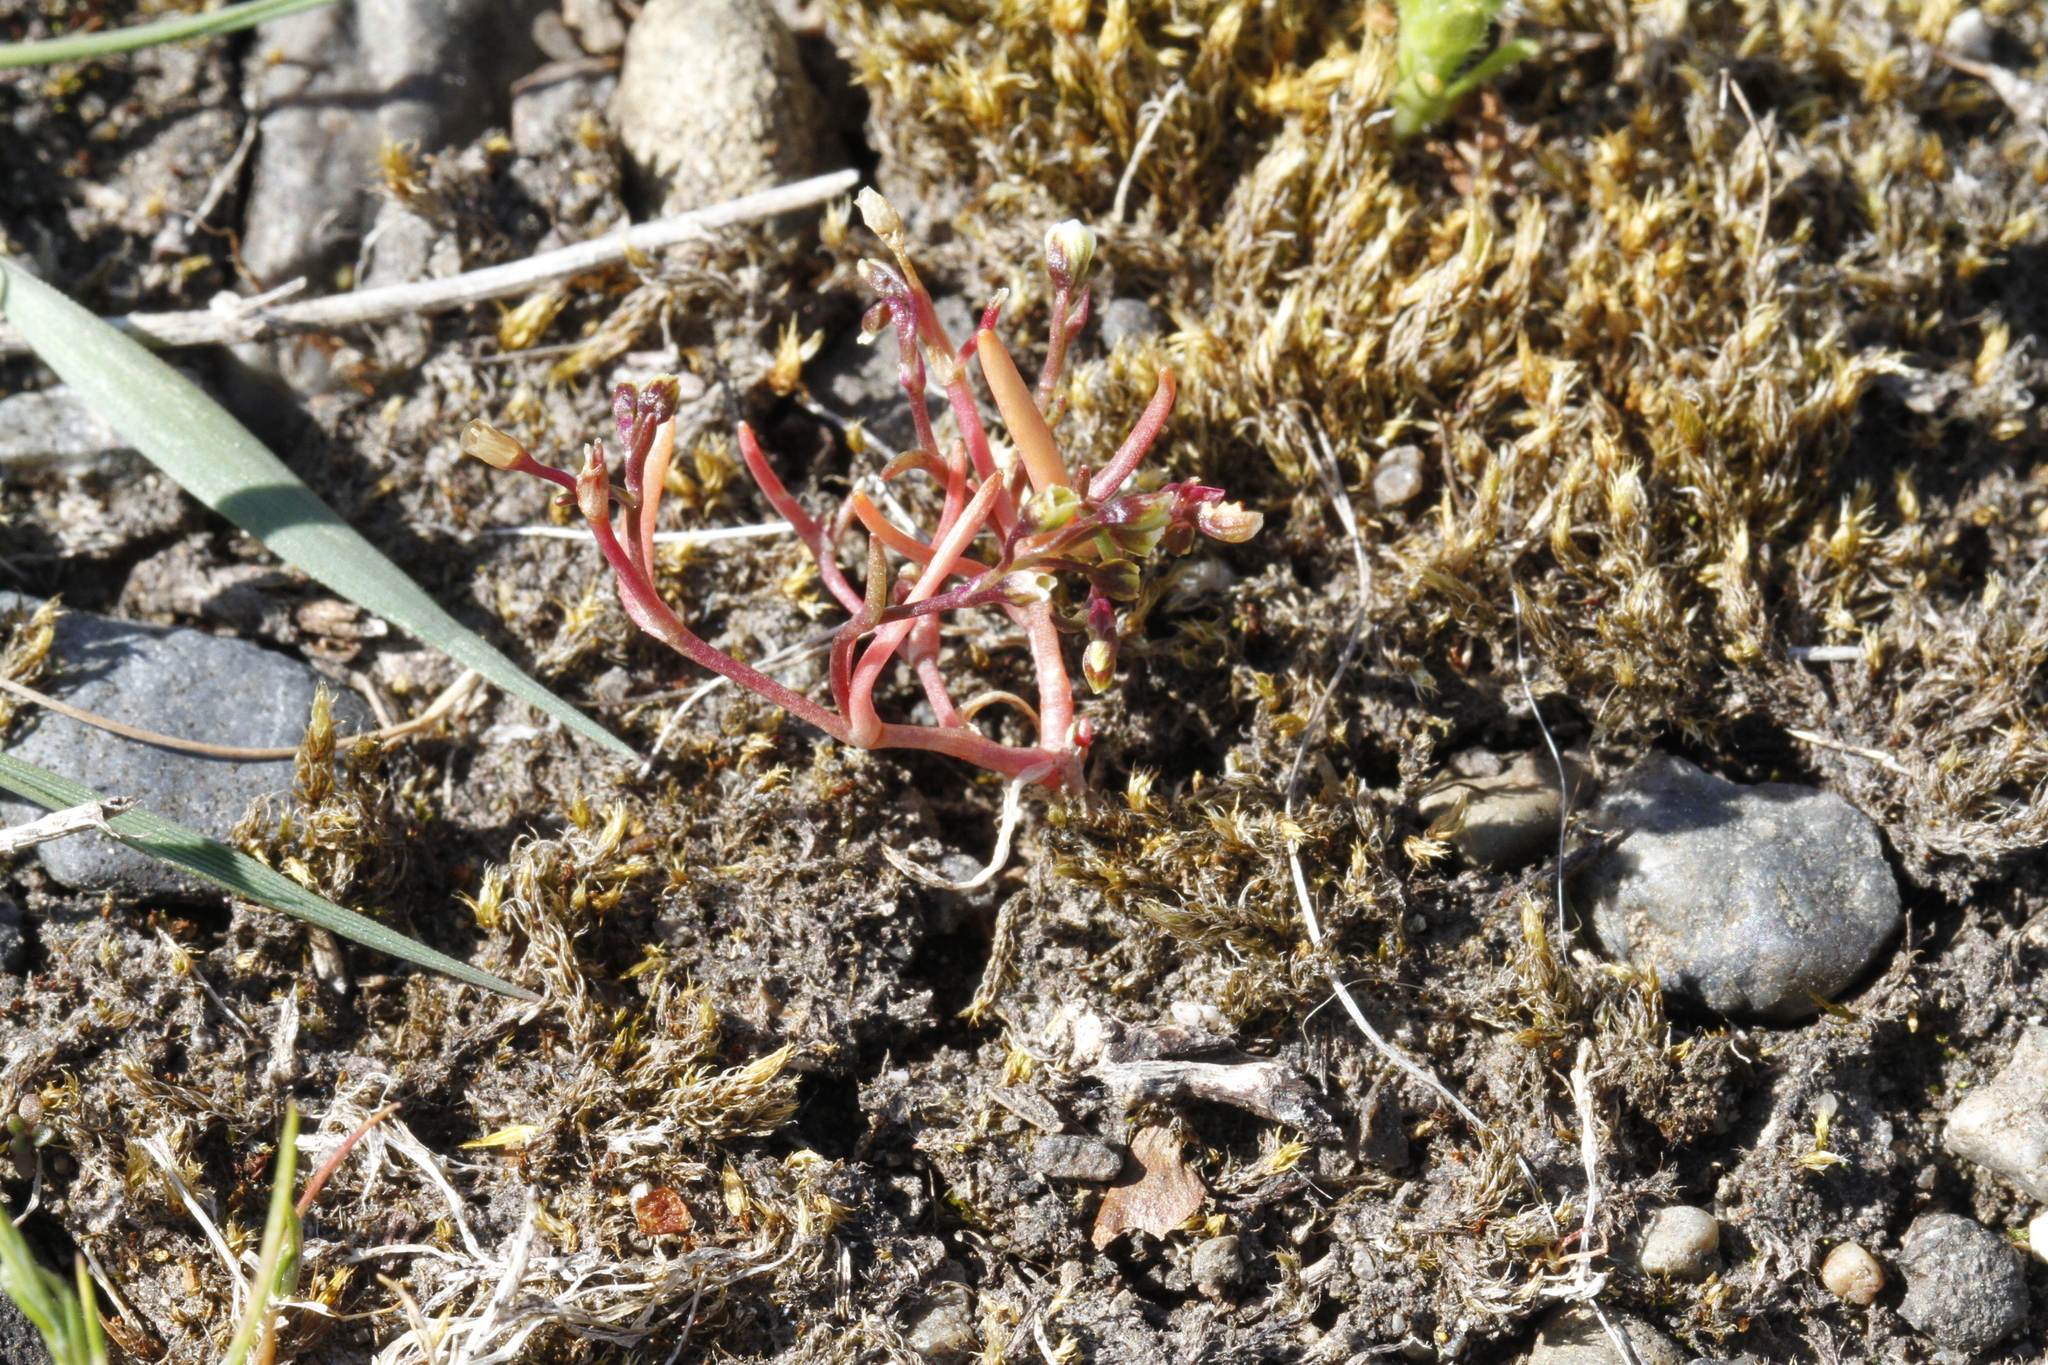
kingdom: Plantae
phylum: Tracheophyta
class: Magnoliopsida
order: Caryophyllales
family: Montiaceae
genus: Montia
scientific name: Montia dichotoma
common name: Dwarf miner's-lettuce
